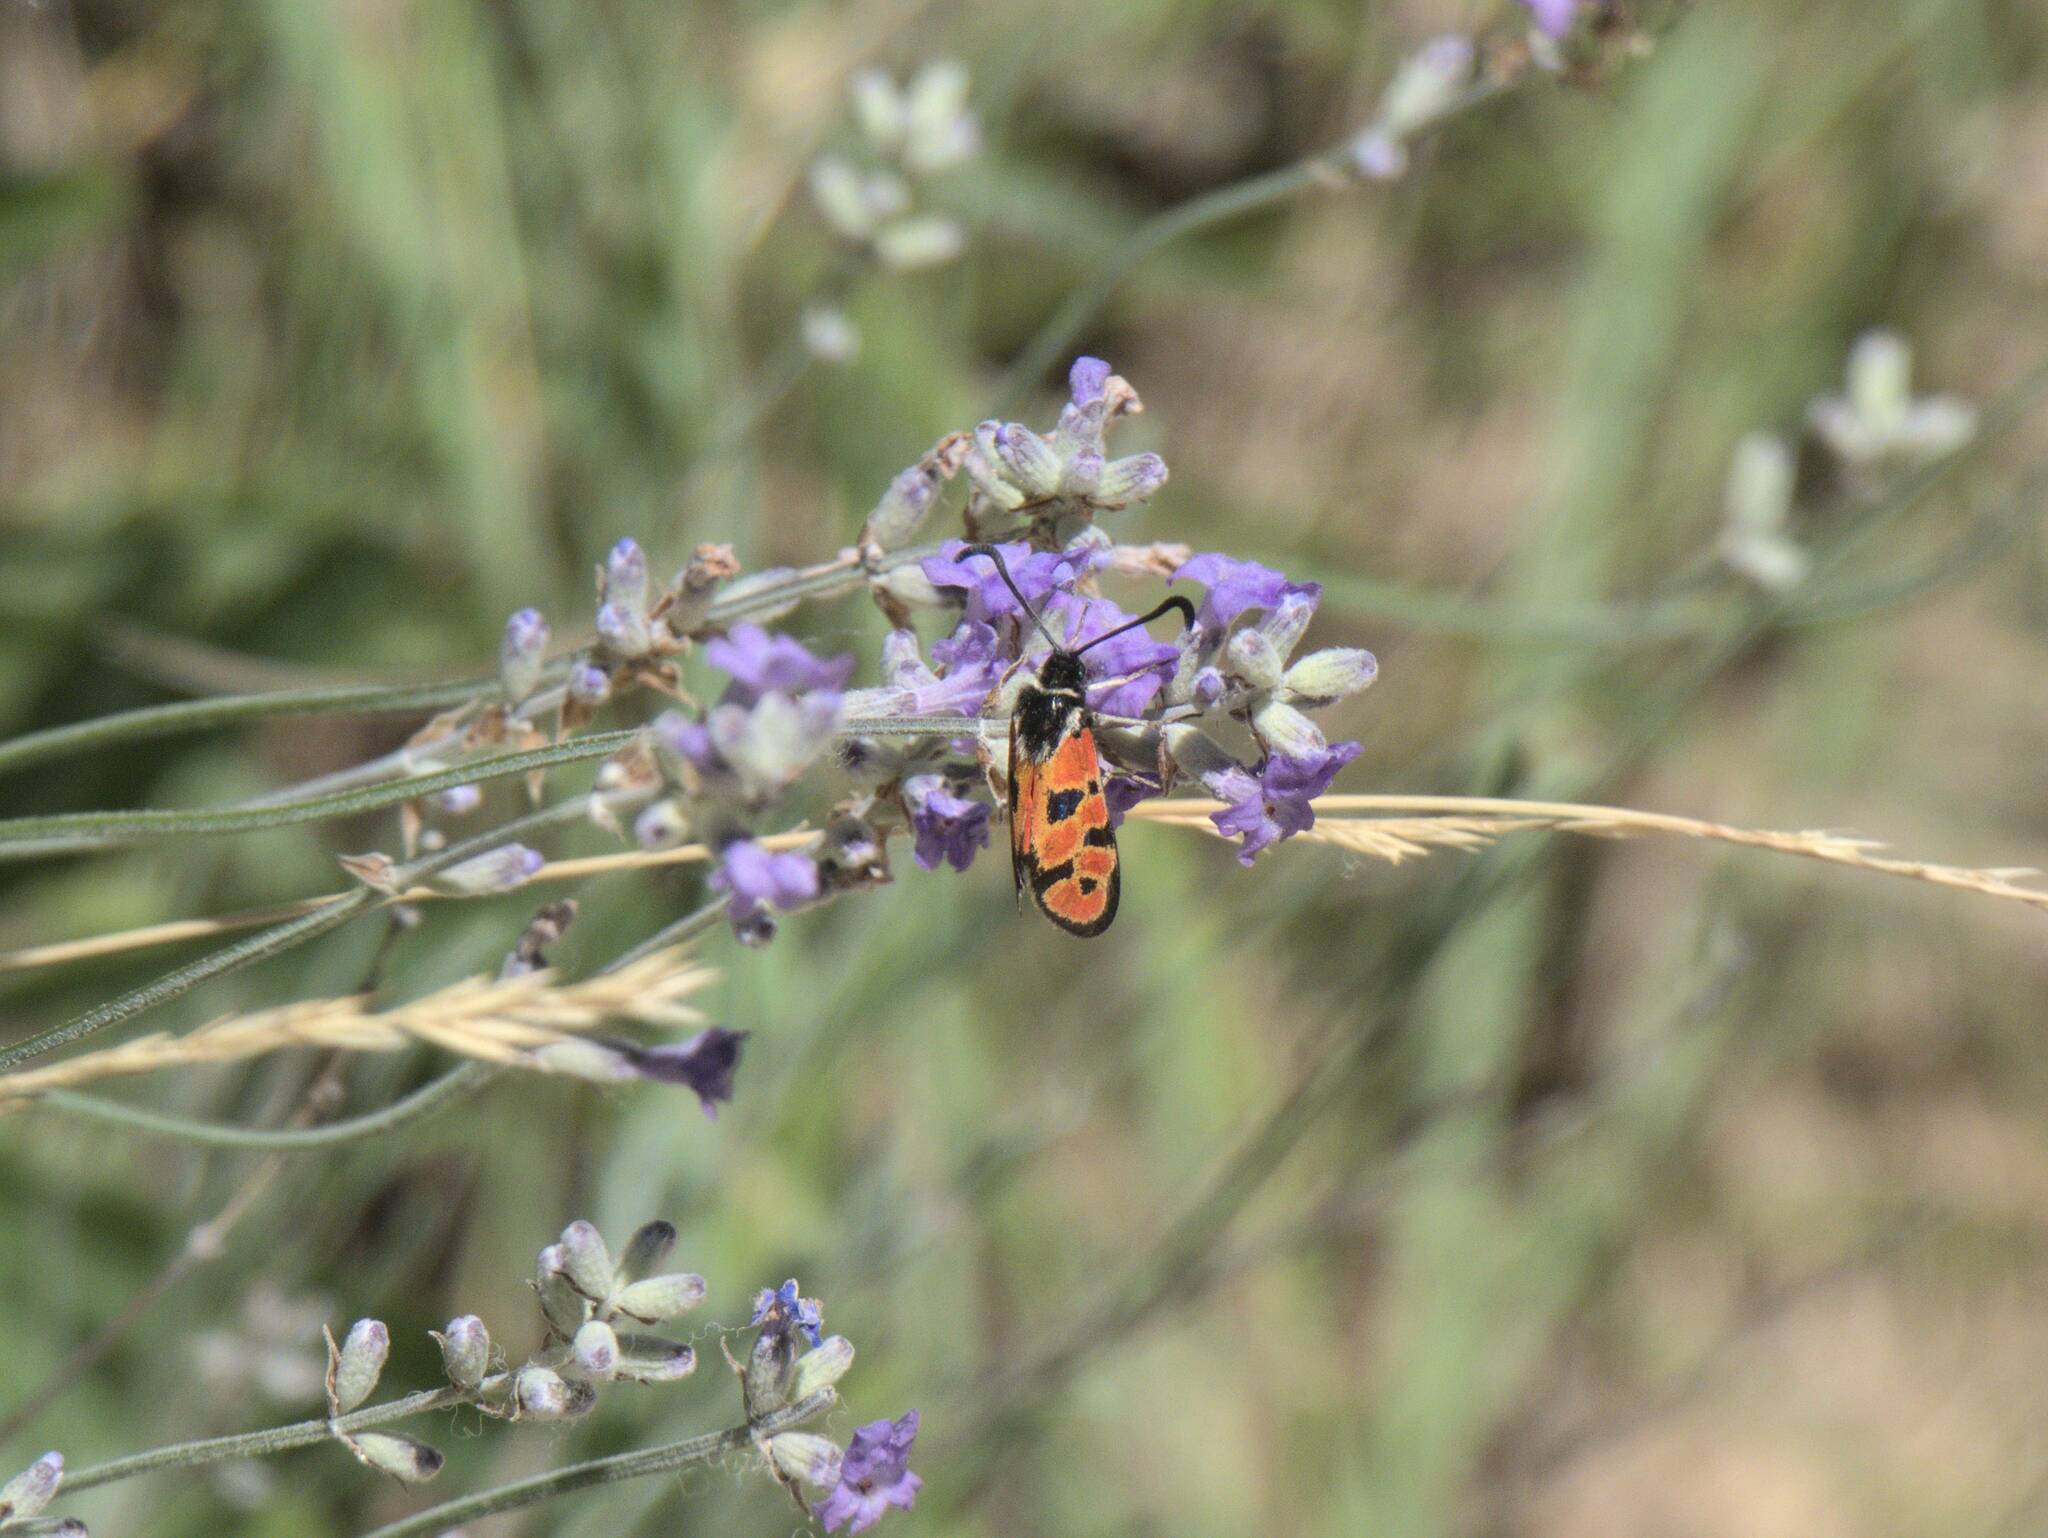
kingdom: Animalia
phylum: Arthropoda
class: Insecta
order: Lepidoptera
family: Zygaenidae
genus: Zygaena
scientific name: Zygaena hilaris
